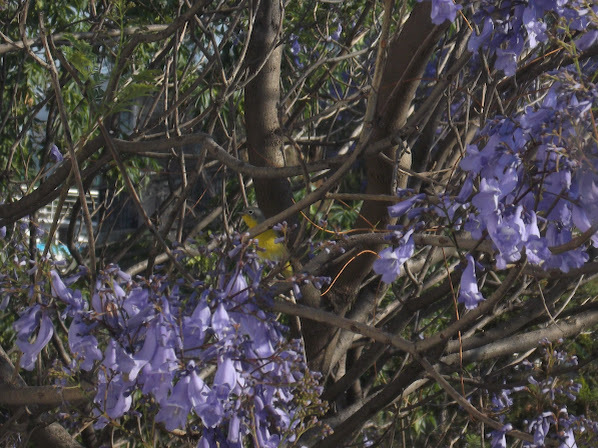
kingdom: Animalia
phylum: Chordata
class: Aves
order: Passeriformes
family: Parulidae
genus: Leiothlypis
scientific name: Leiothlypis ruficapilla
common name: Nashville warbler
